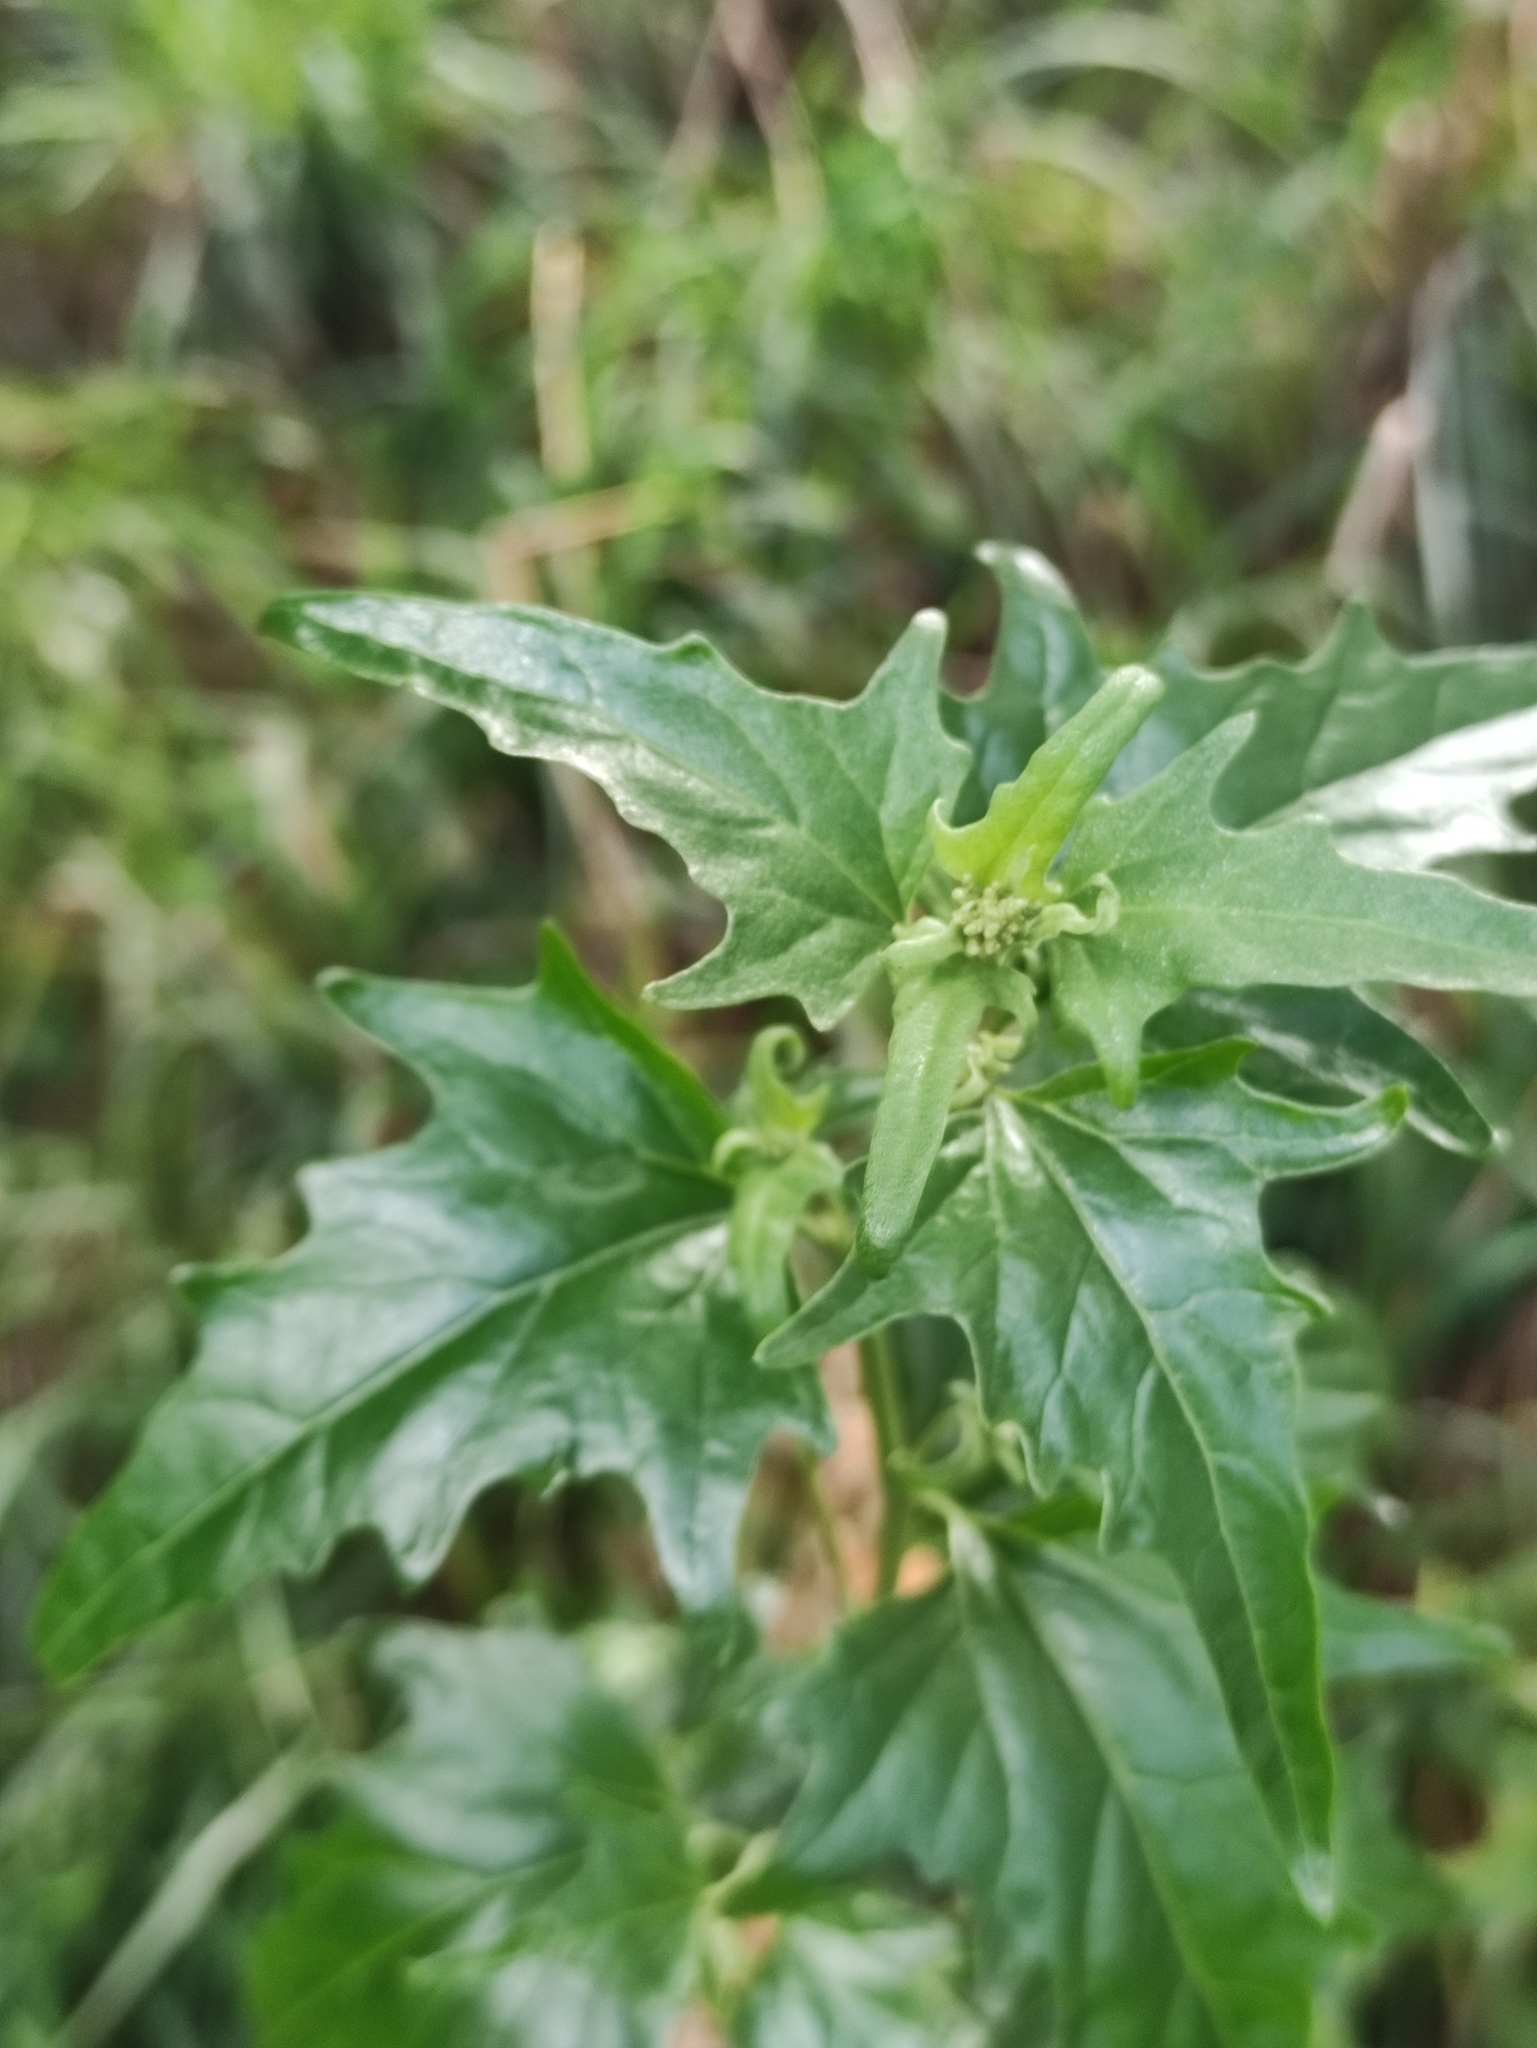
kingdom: Plantae
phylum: Tracheophyta
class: Magnoliopsida
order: Caryophyllales
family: Amaranthaceae
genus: Atriplex
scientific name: Atriplex sagittata
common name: Purple orache
